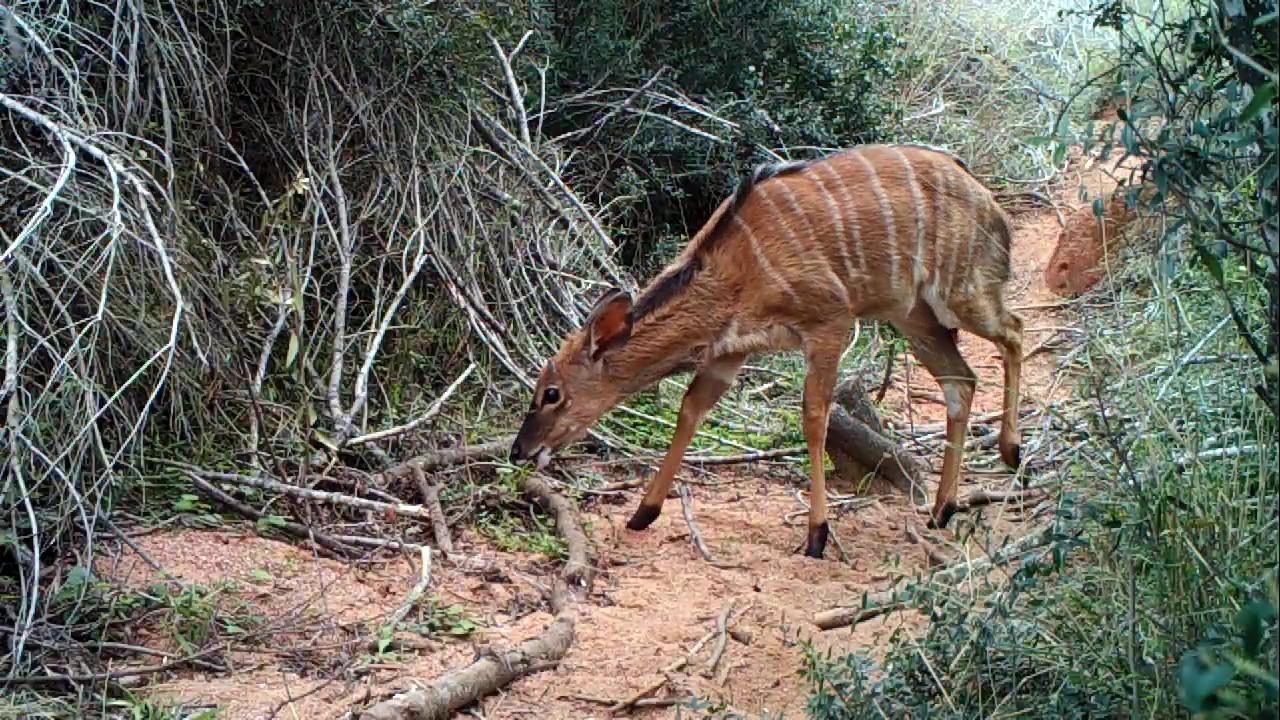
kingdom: Animalia
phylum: Chordata
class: Mammalia
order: Artiodactyla
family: Bovidae
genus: Tragelaphus
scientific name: Tragelaphus angasii
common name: Nyala
